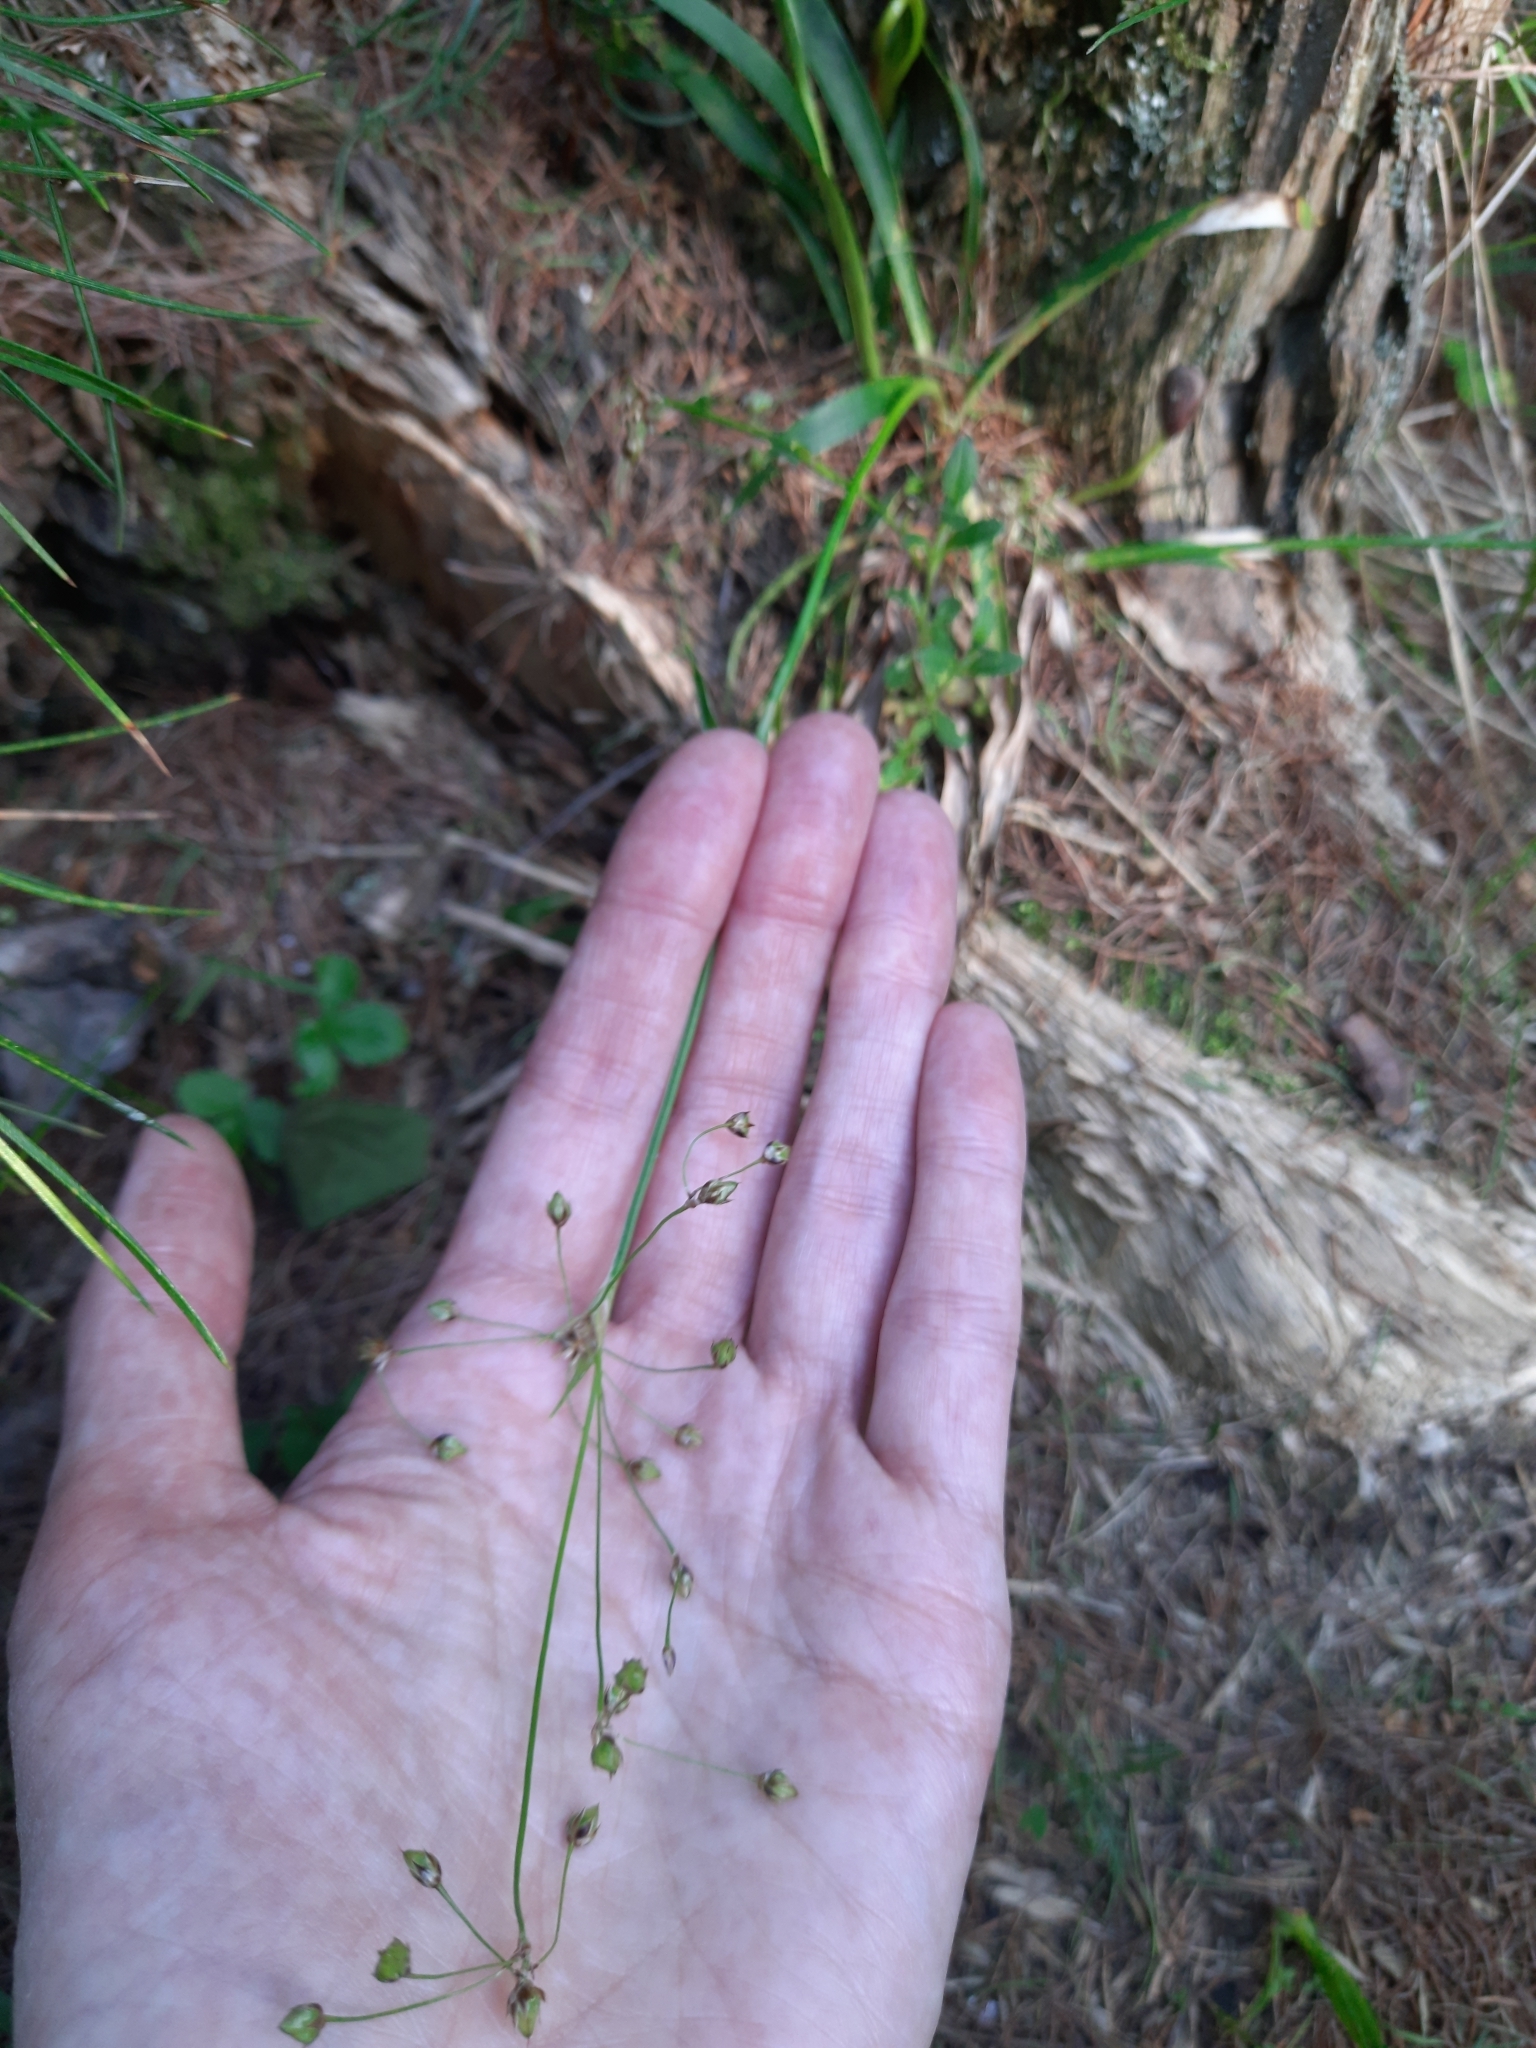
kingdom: Plantae
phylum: Tracheophyta
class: Liliopsida
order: Poales
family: Juncaceae
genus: Luzula
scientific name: Luzula pilosa
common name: Hairy wood-rush
